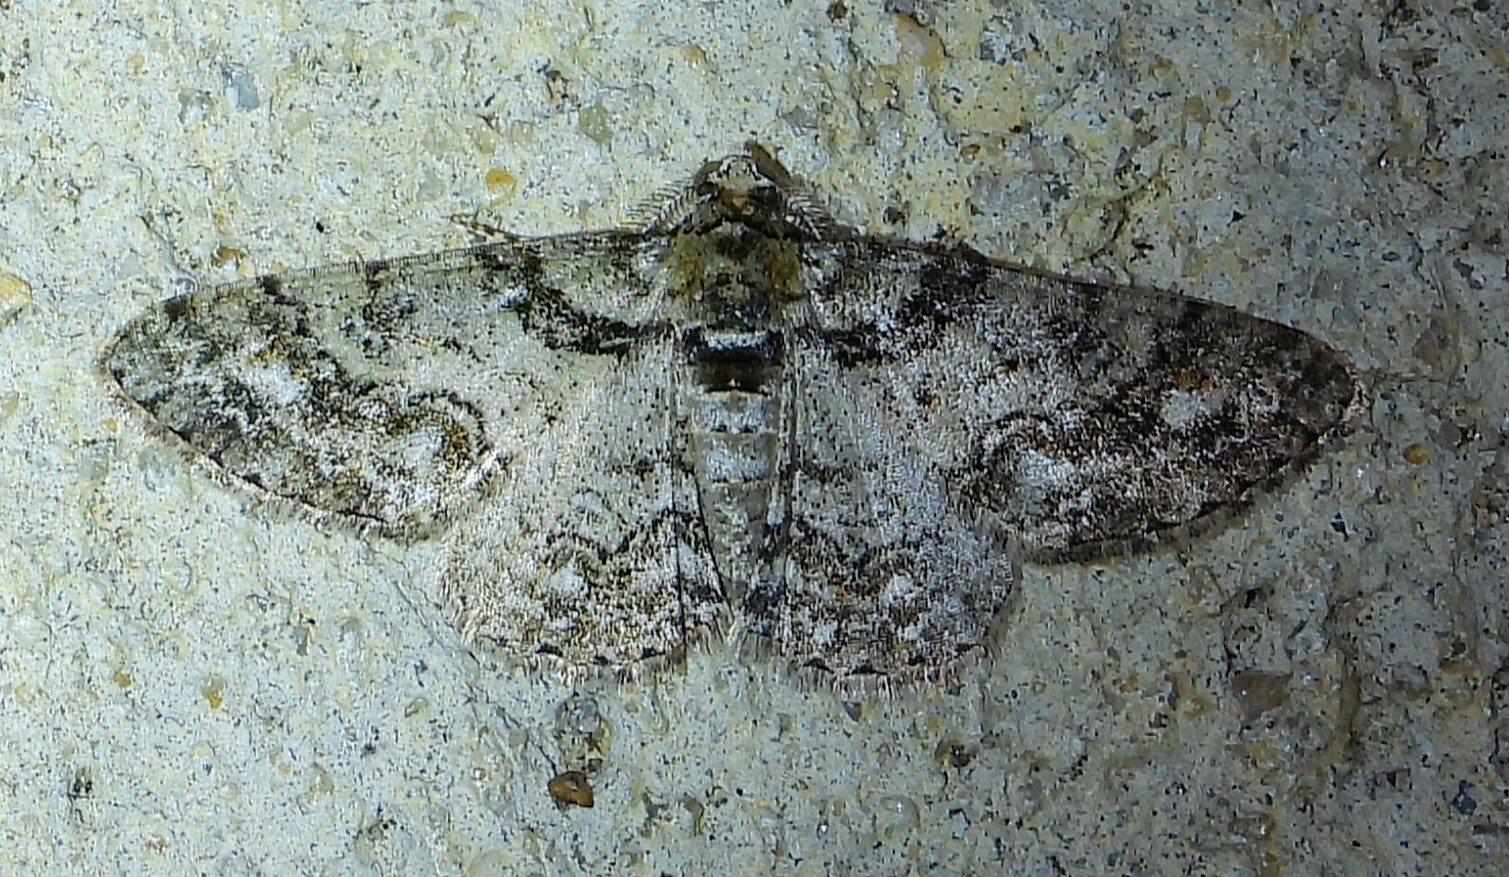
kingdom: Animalia
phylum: Arthropoda
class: Insecta
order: Lepidoptera
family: Geometridae
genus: Cleora
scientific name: Cleora sublunaria
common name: Double-lined gray
